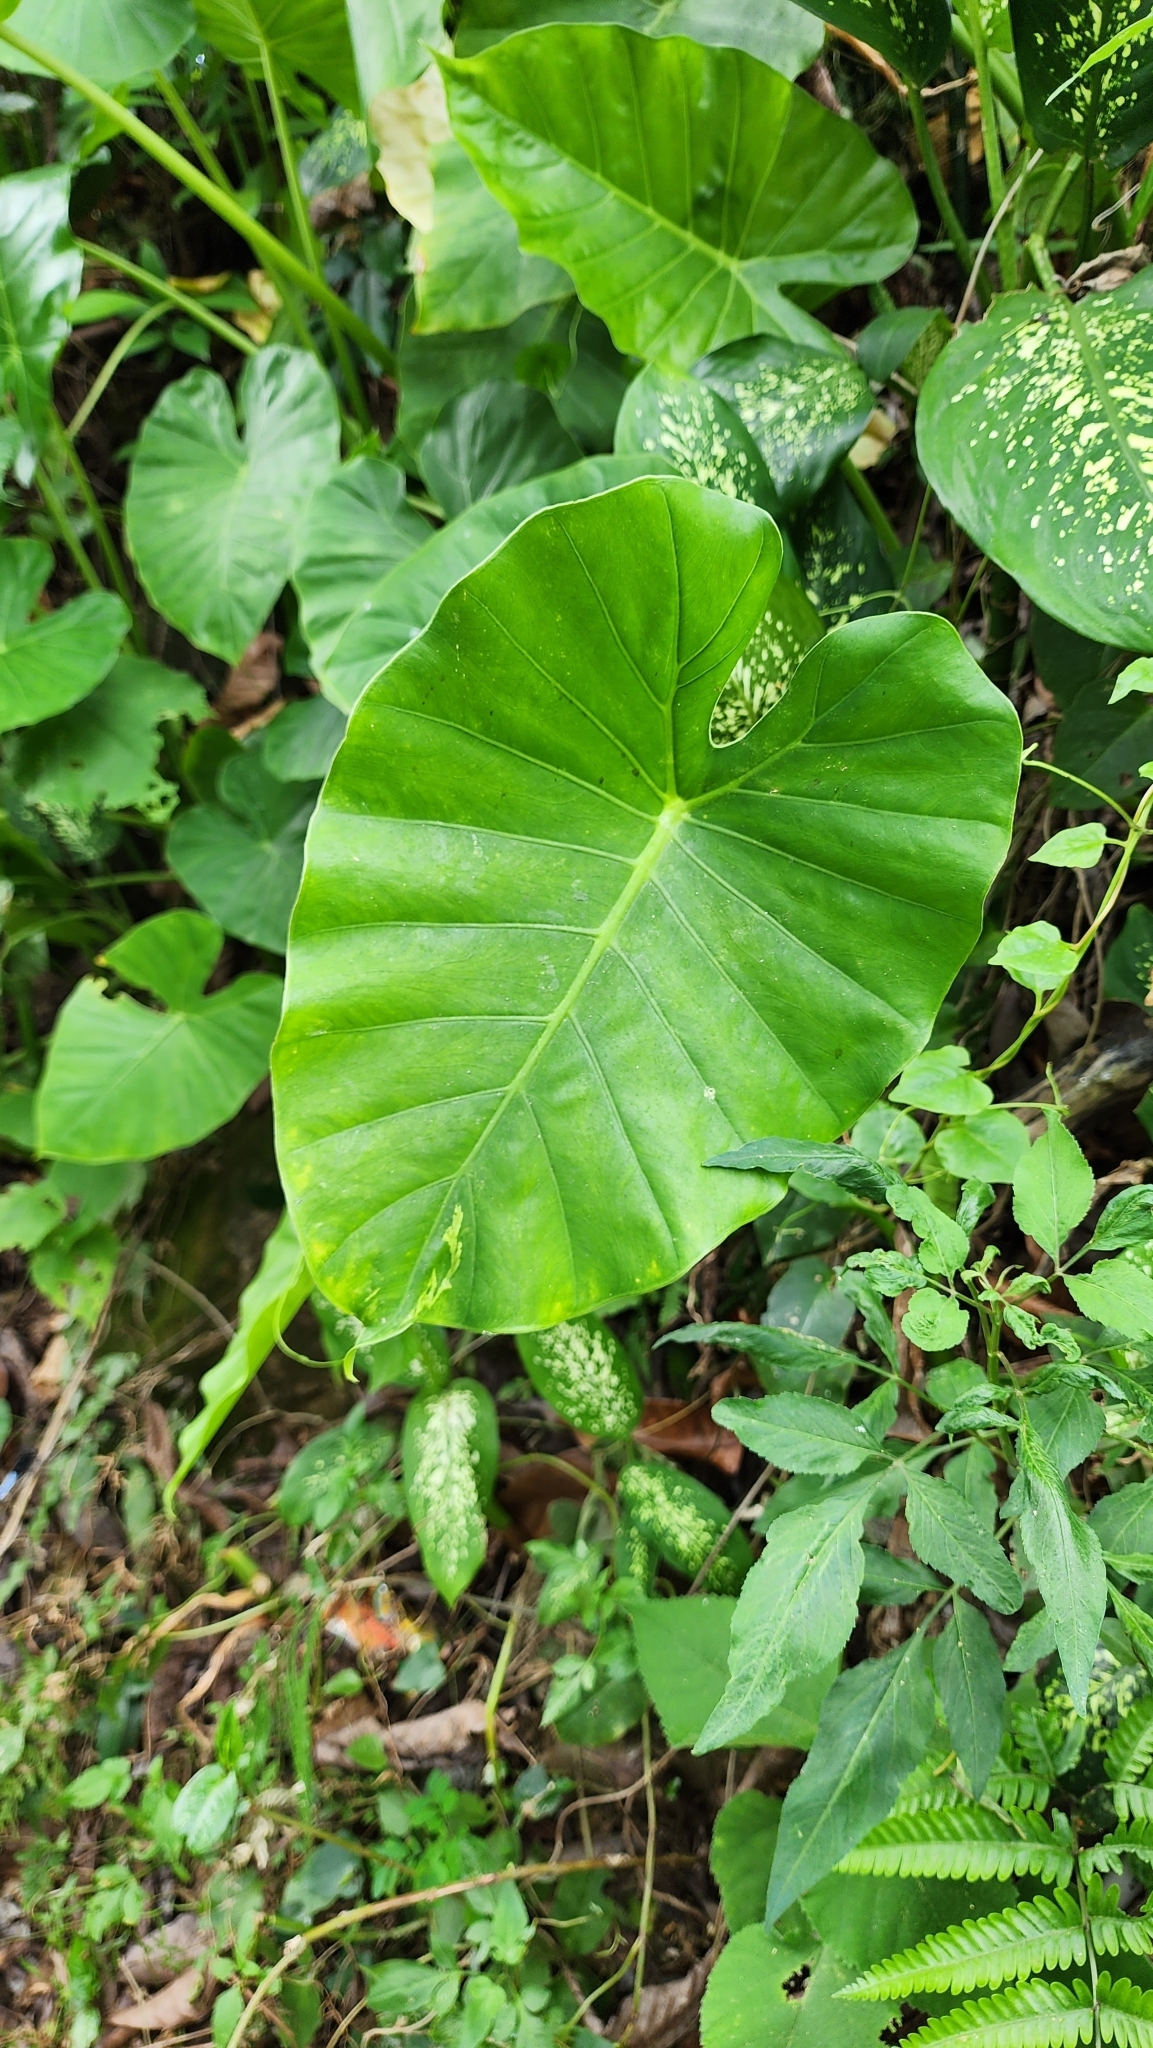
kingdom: Plantae
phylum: Tracheophyta
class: Liliopsida
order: Alismatales
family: Araceae
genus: Alocasia
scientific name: Alocasia odora
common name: Asian taro
